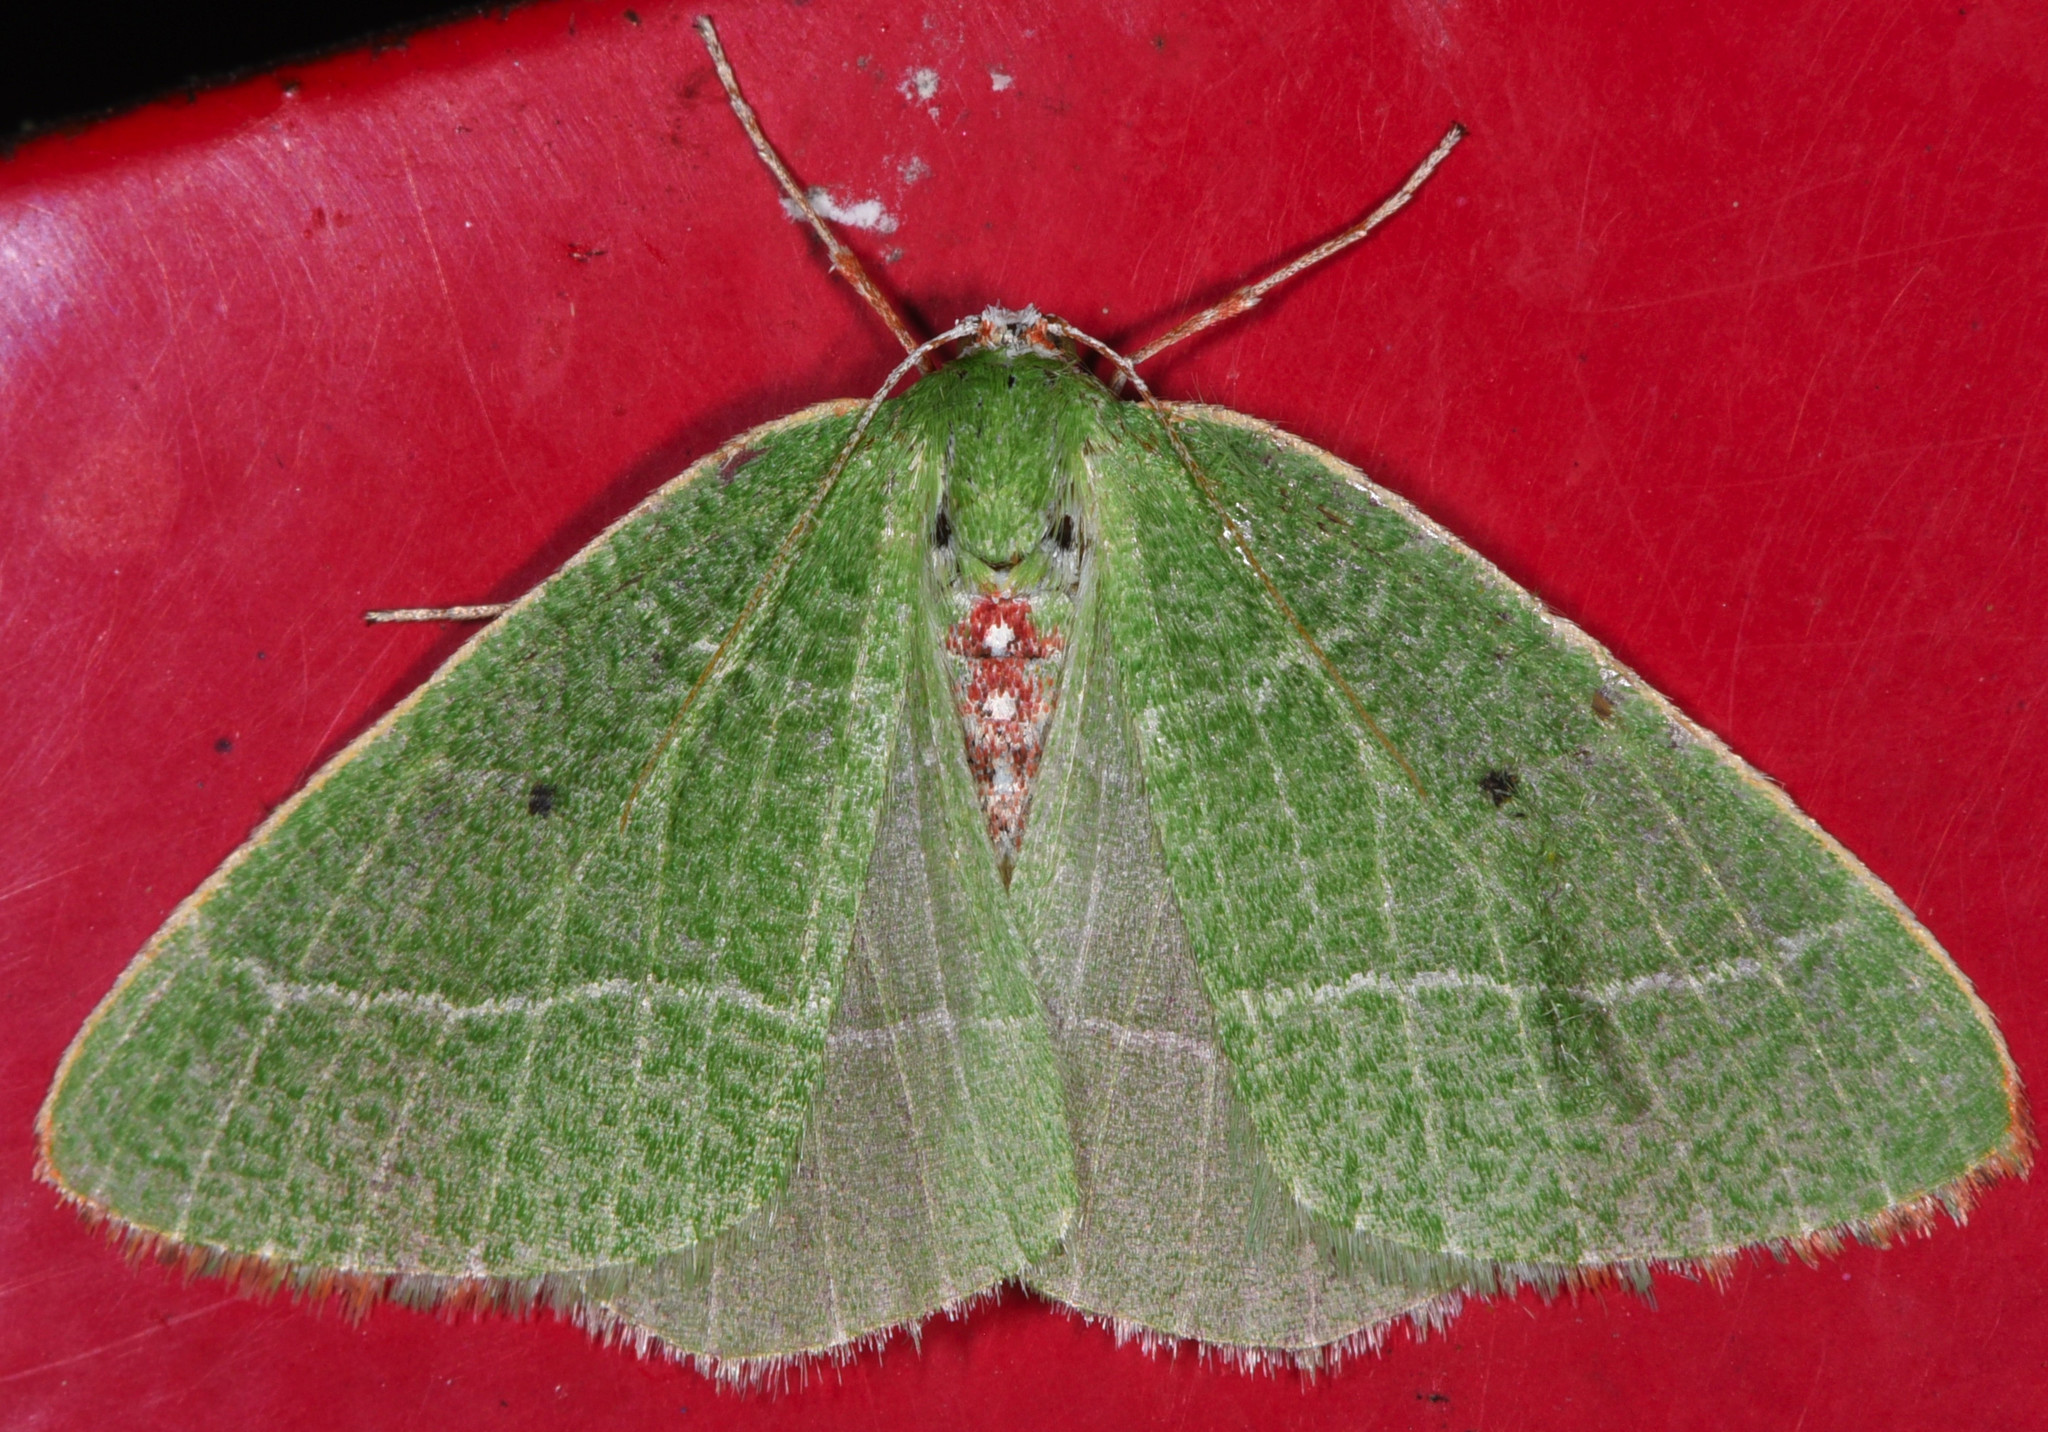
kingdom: Animalia
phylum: Arthropoda
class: Insecta
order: Lepidoptera
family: Geometridae
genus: Nemoria
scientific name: Nemoria pulcherrima
